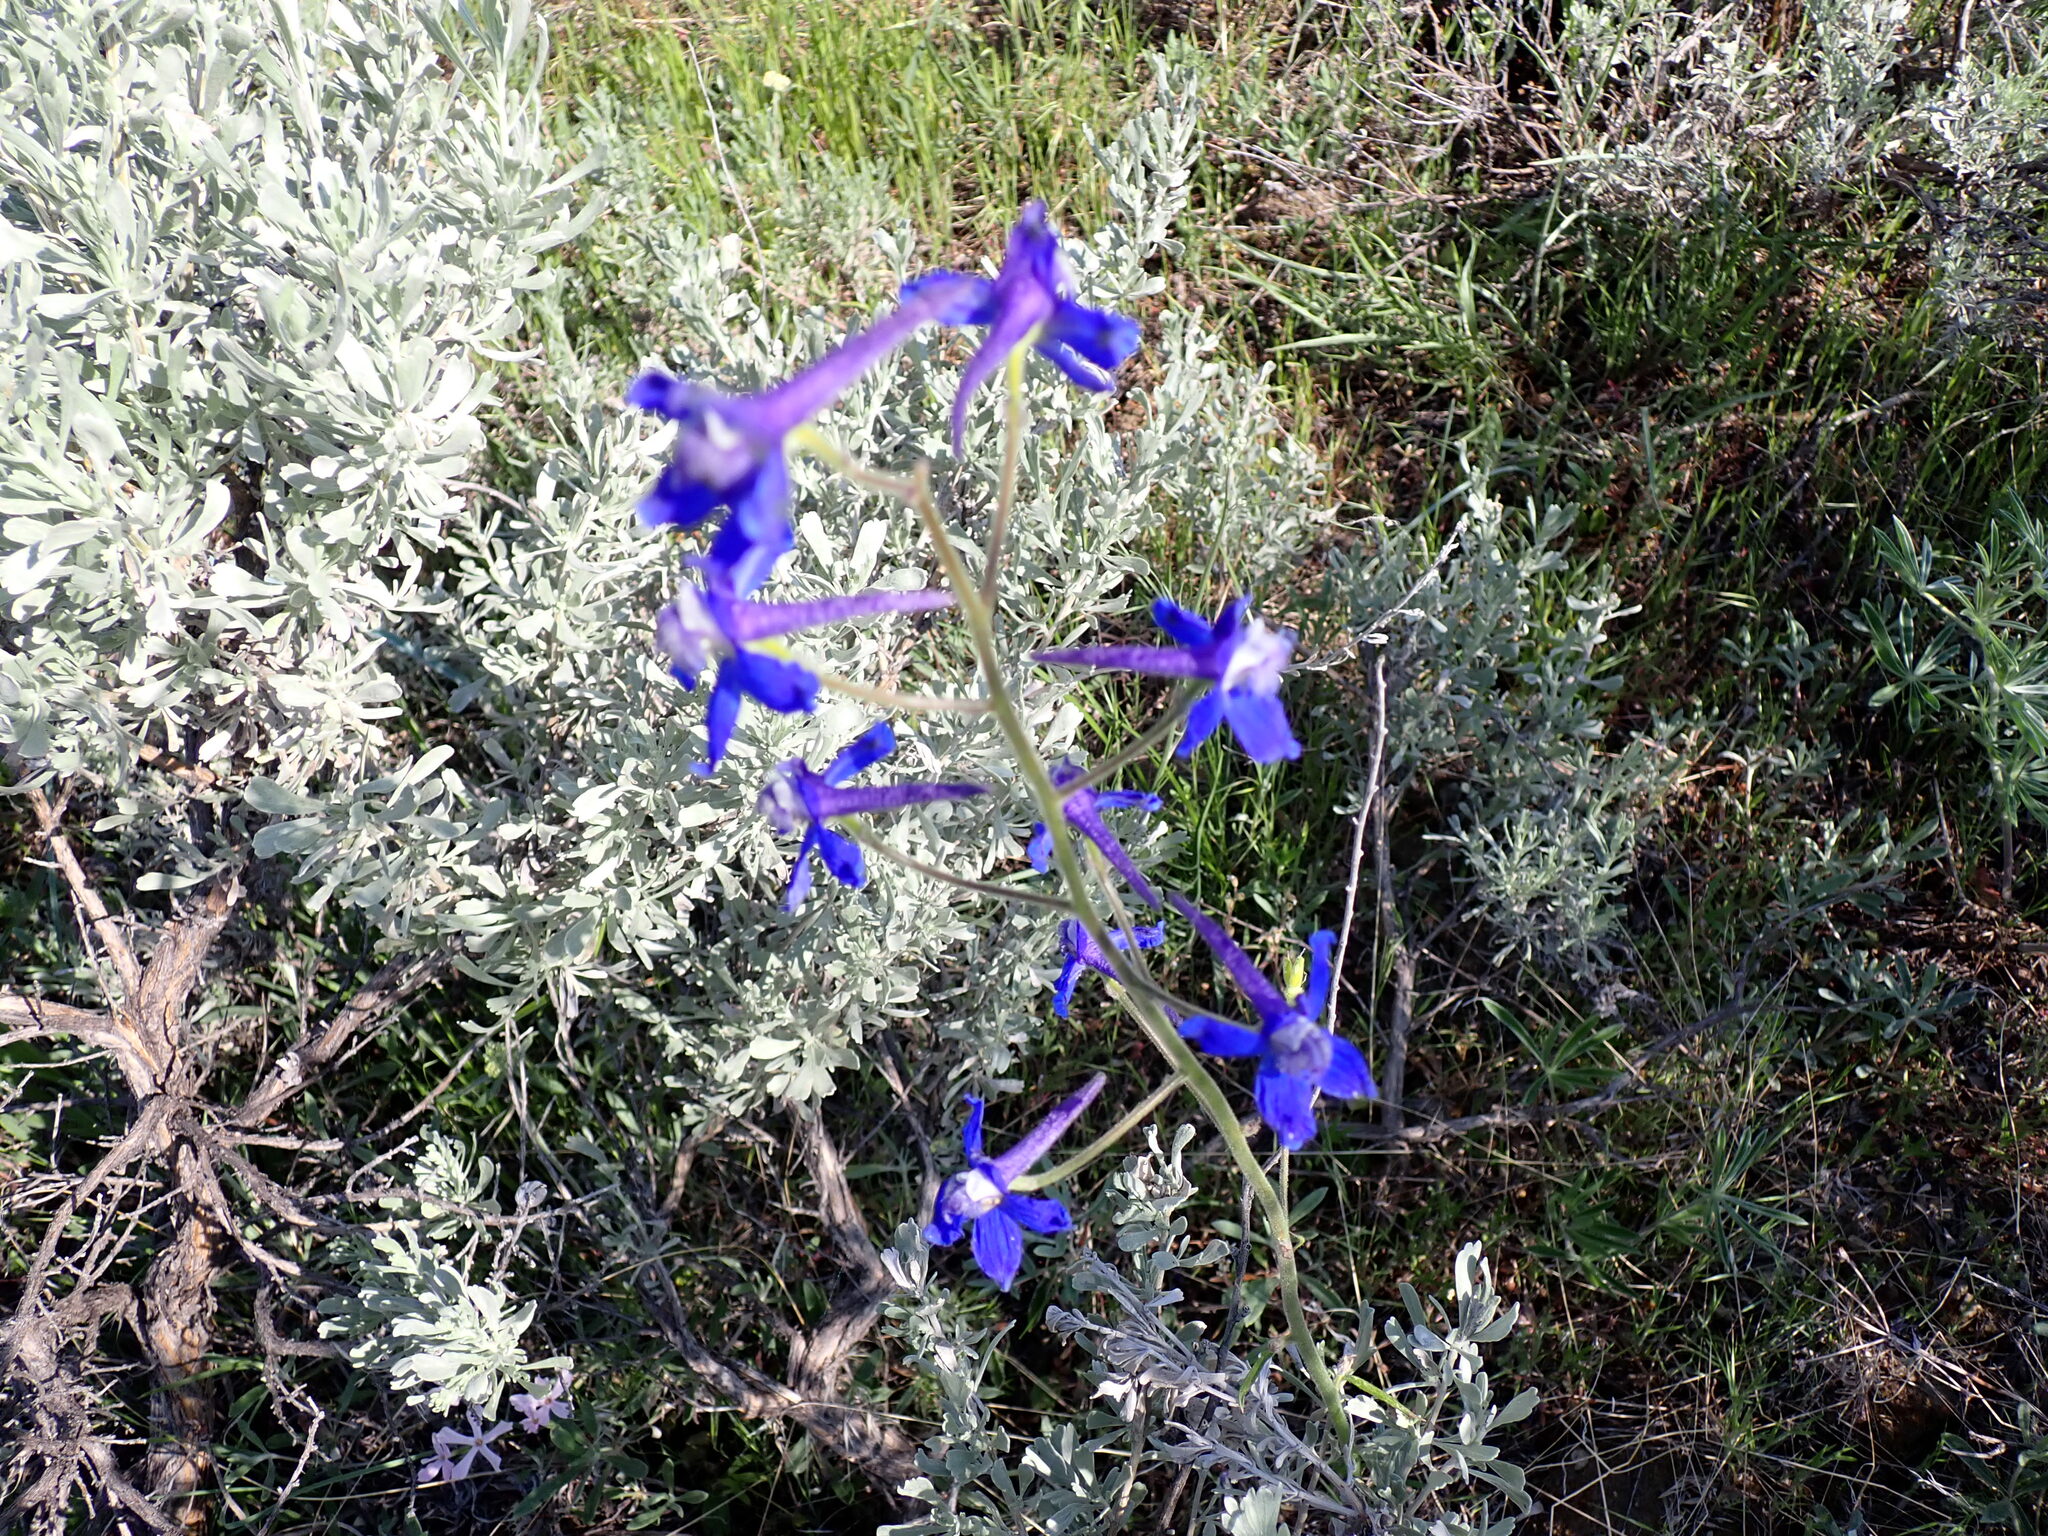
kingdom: Plantae
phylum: Tracheophyta
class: Magnoliopsida
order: Ranunculales
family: Ranunculaceae
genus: Delphinium
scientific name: Delphinium nuttallianum
